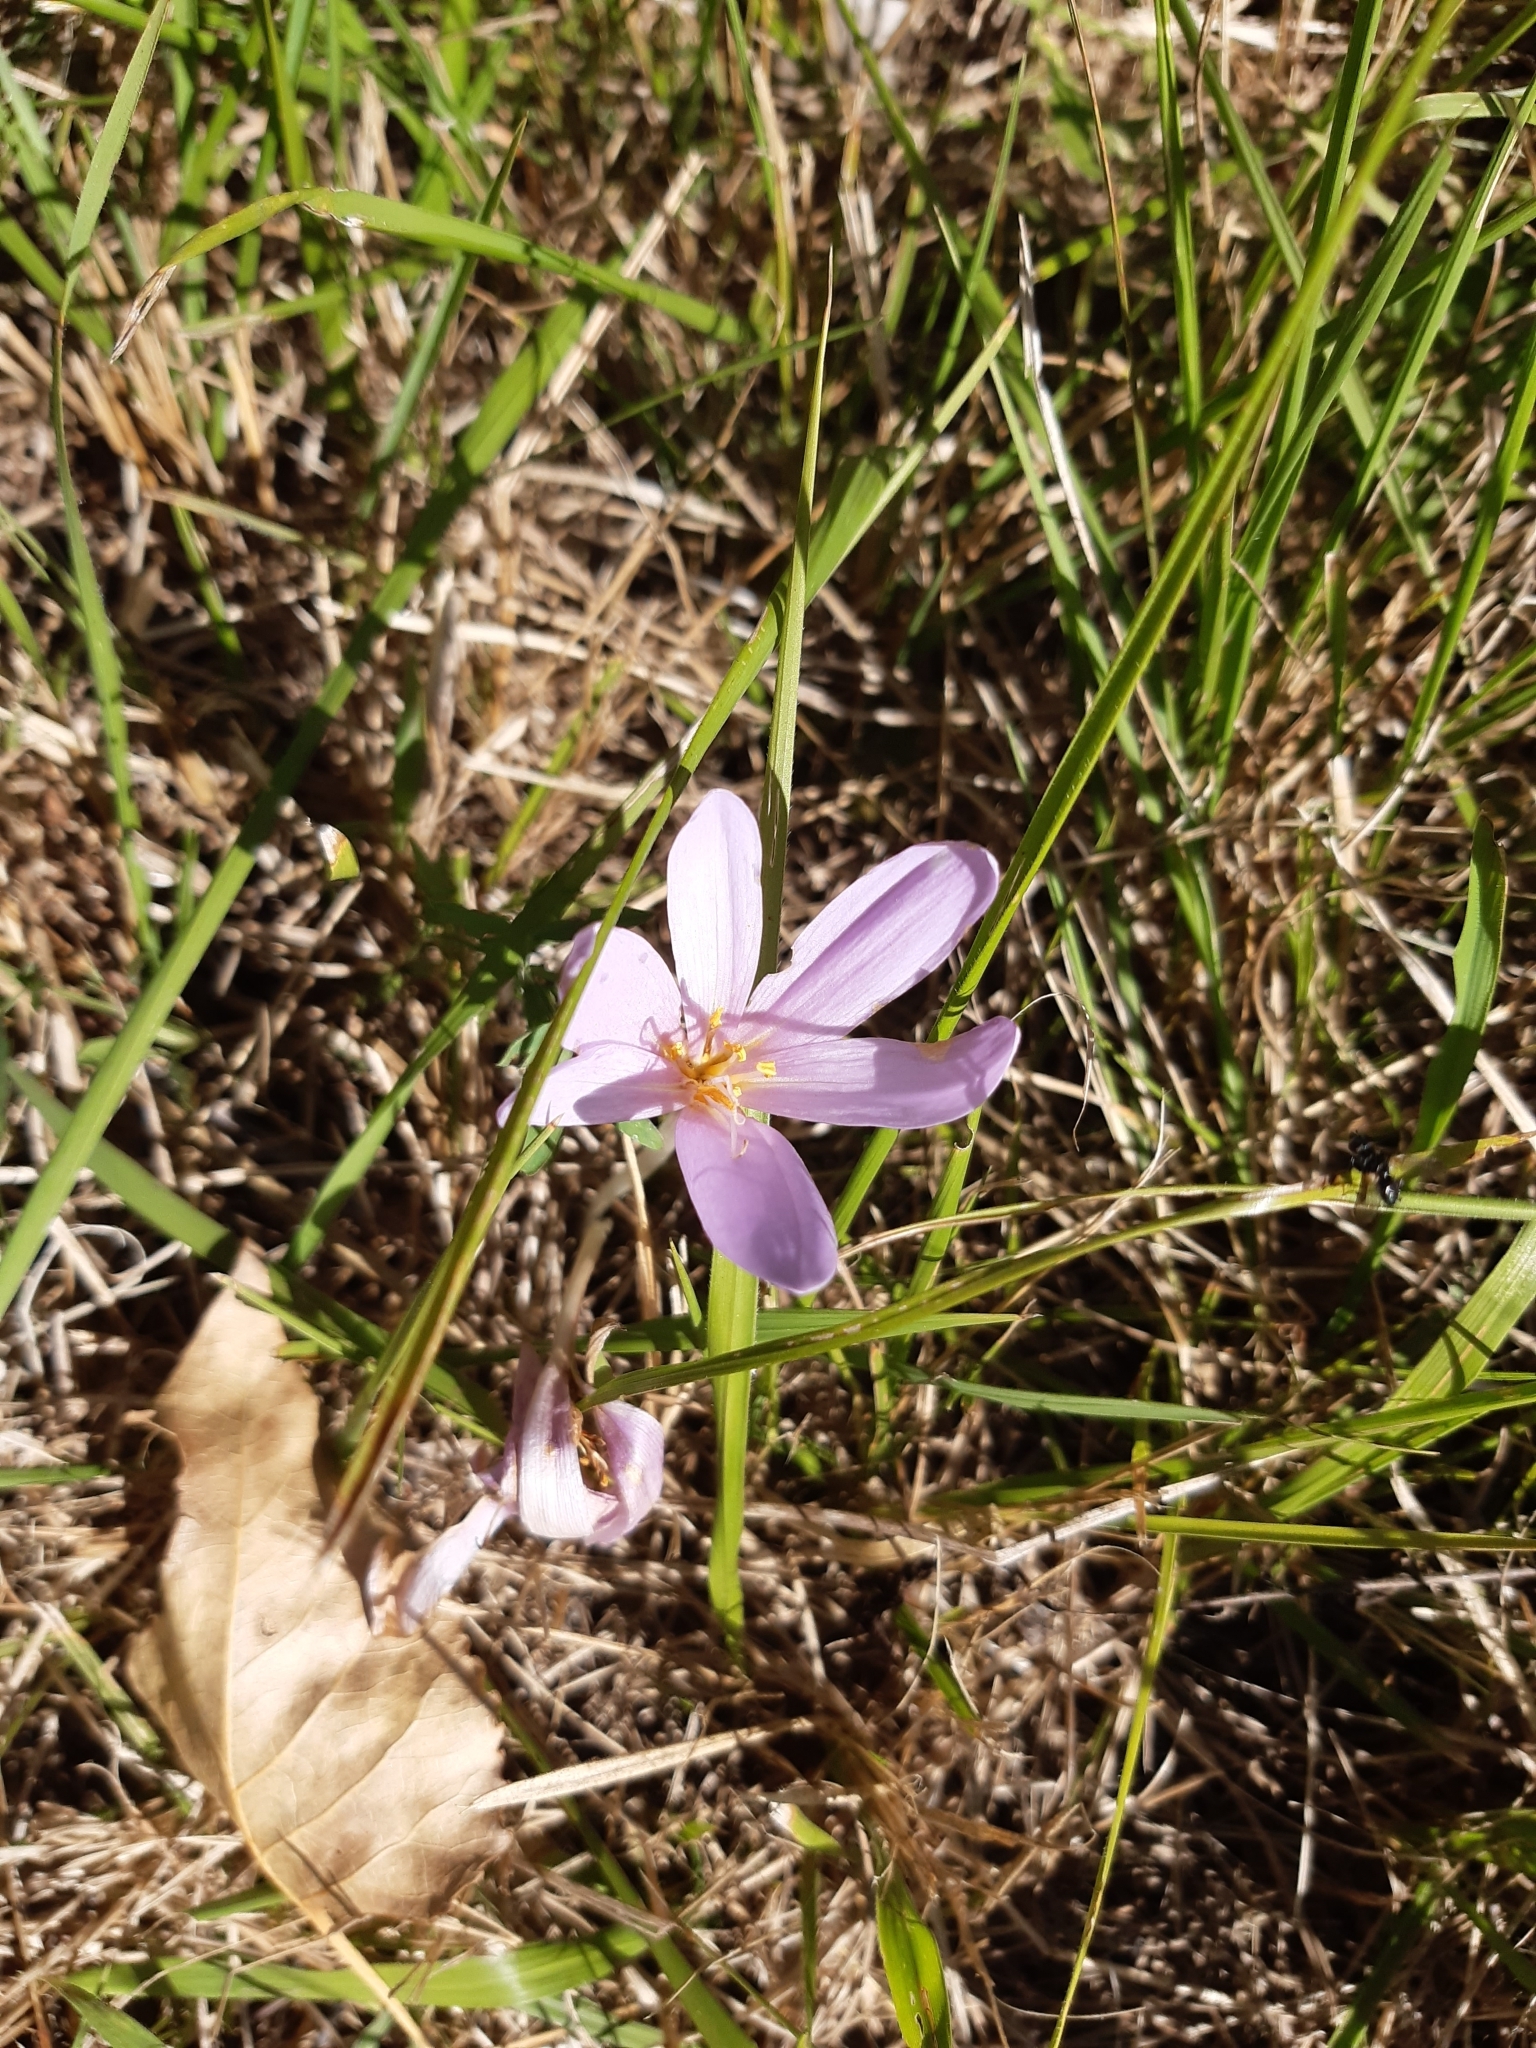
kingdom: Plantae
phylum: Tracheophyta
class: Liliopsida
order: Liliales
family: Colchicaceae
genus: Colchicum
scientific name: Colchicum autumnale
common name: Autumn crocus
